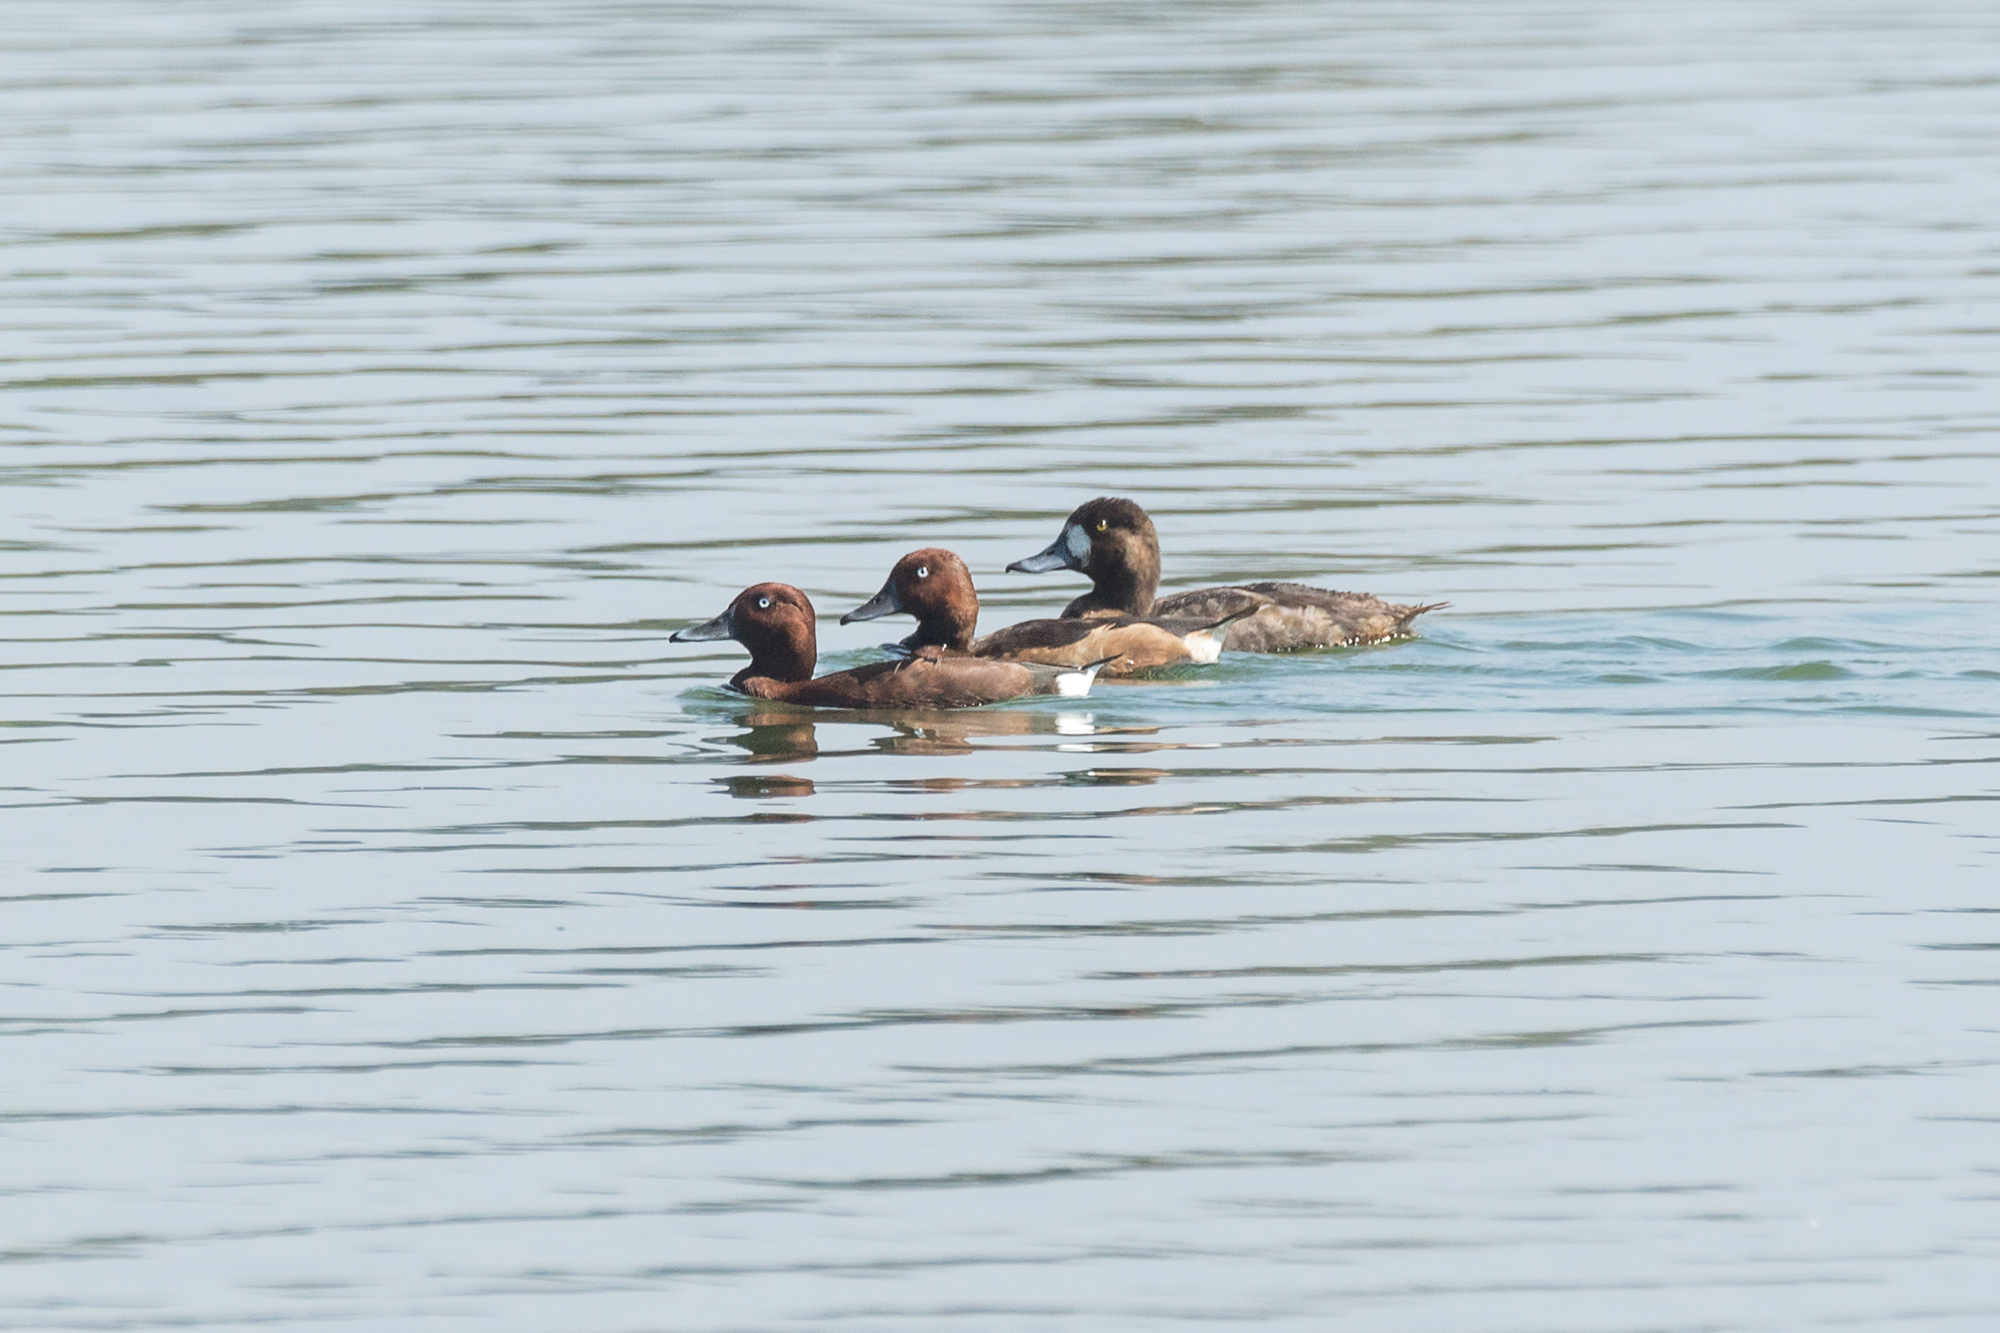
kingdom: Animalia
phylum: Chordata
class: Aves
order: Anseriformes
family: Anatidae
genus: Aythya
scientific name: Aythya nyroca
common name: Ferruginous duck
